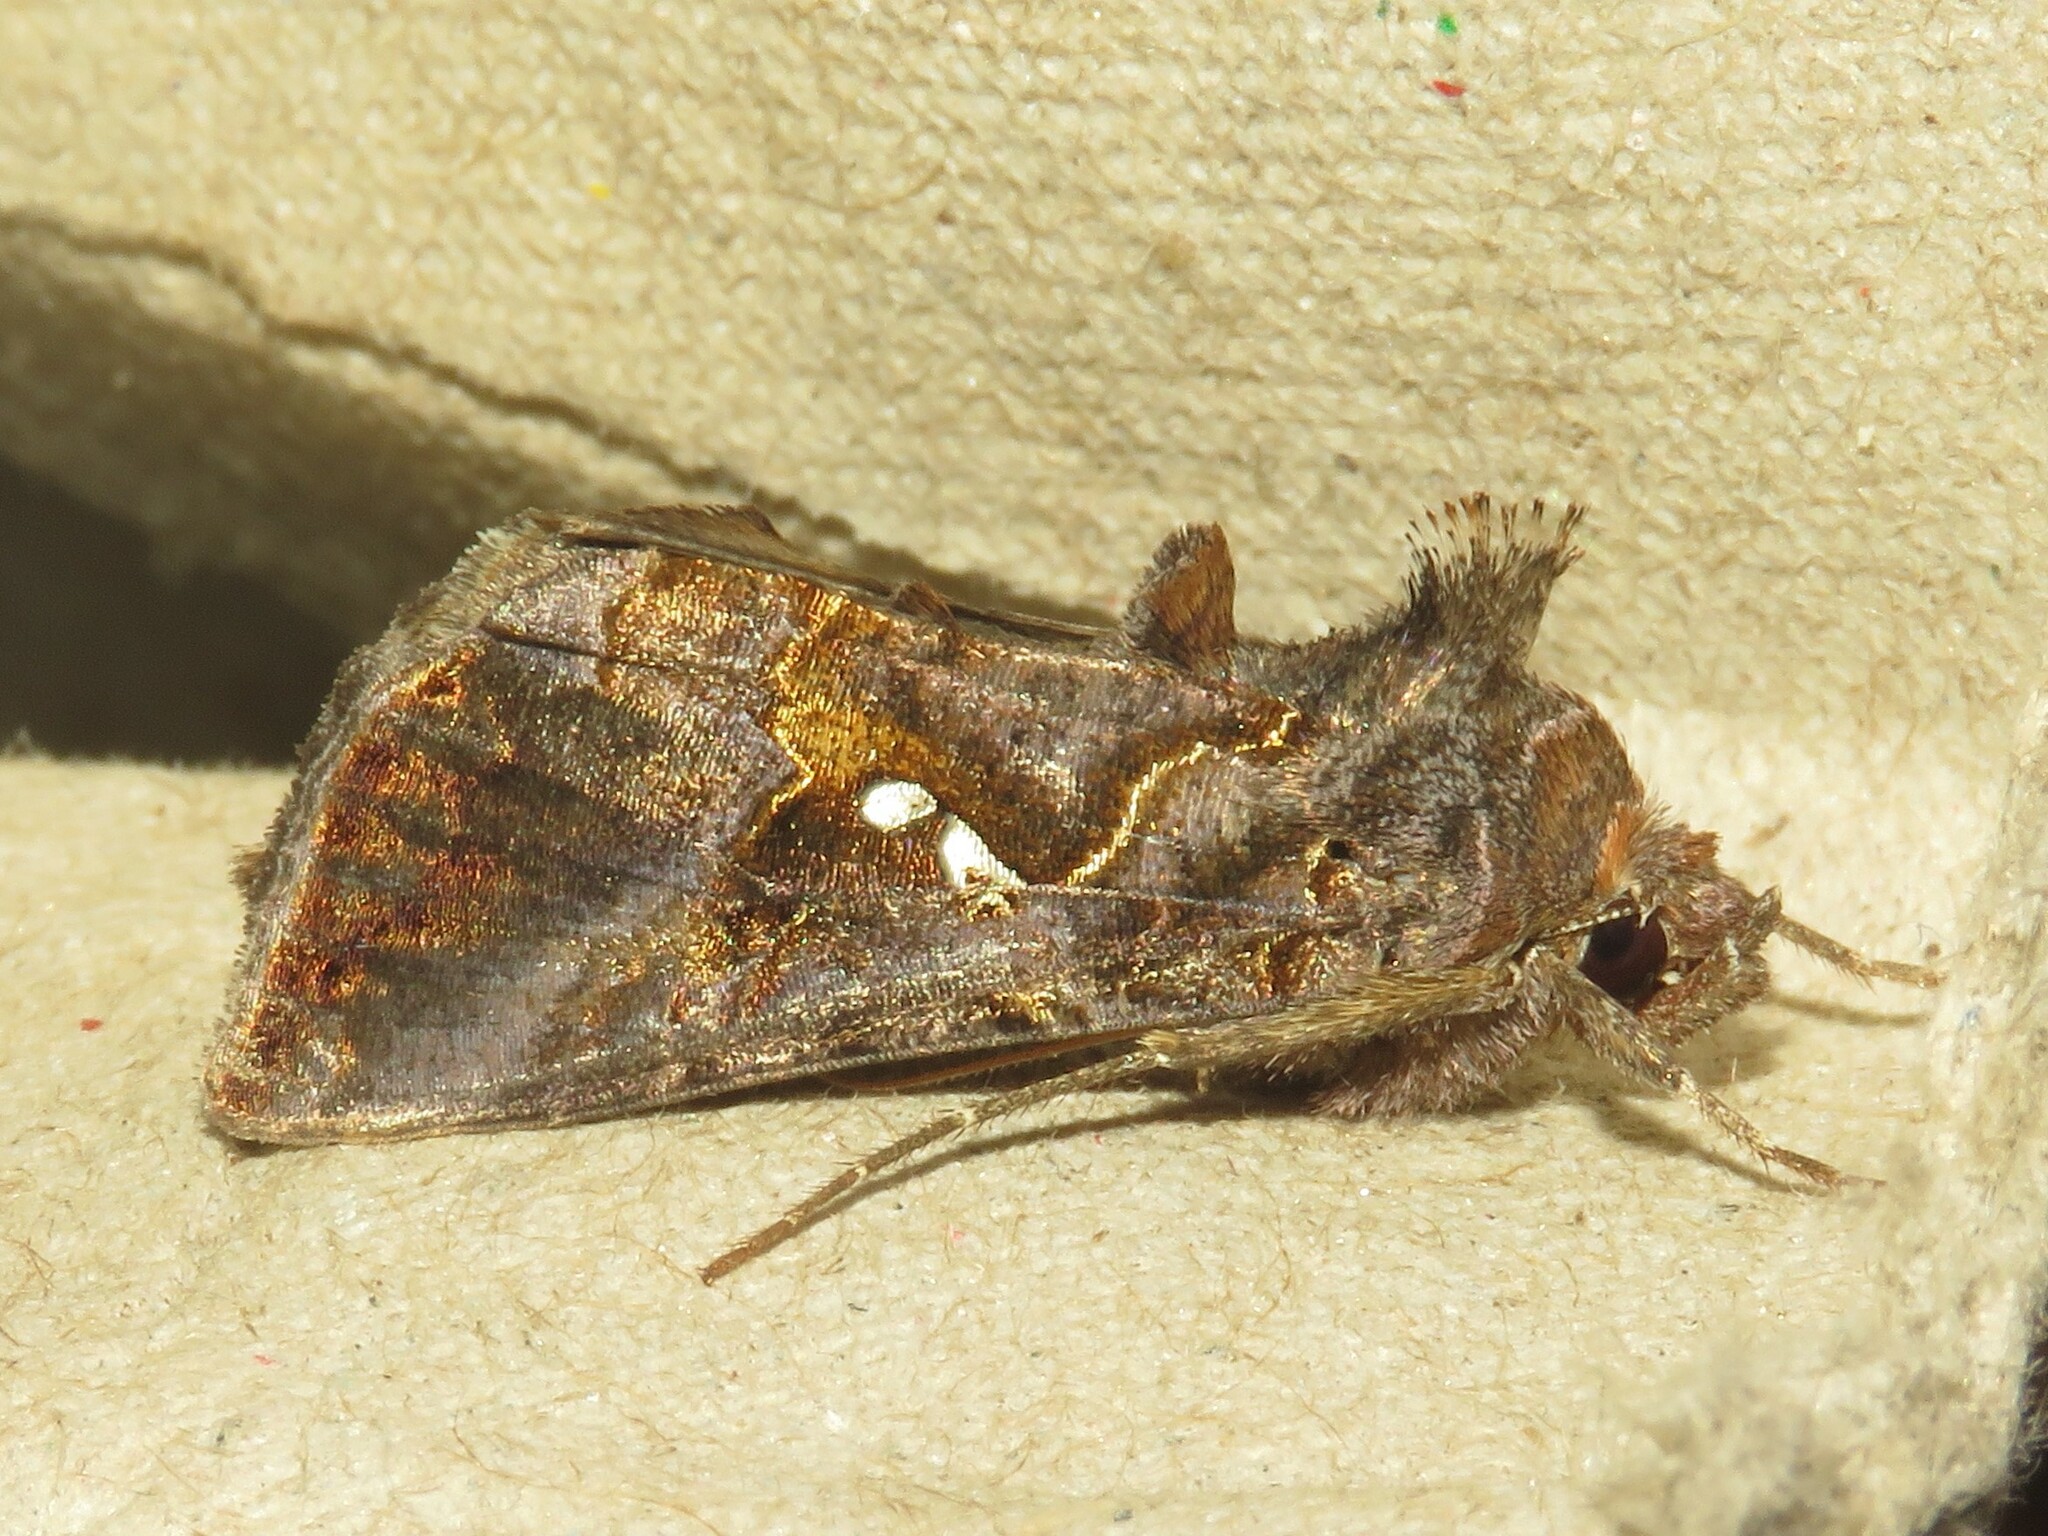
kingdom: Animalia
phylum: Arthropoda
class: Insecta
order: Lepidoptera
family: Noctuidae
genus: Autographa
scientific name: Autographa precationis
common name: Common looper moth
